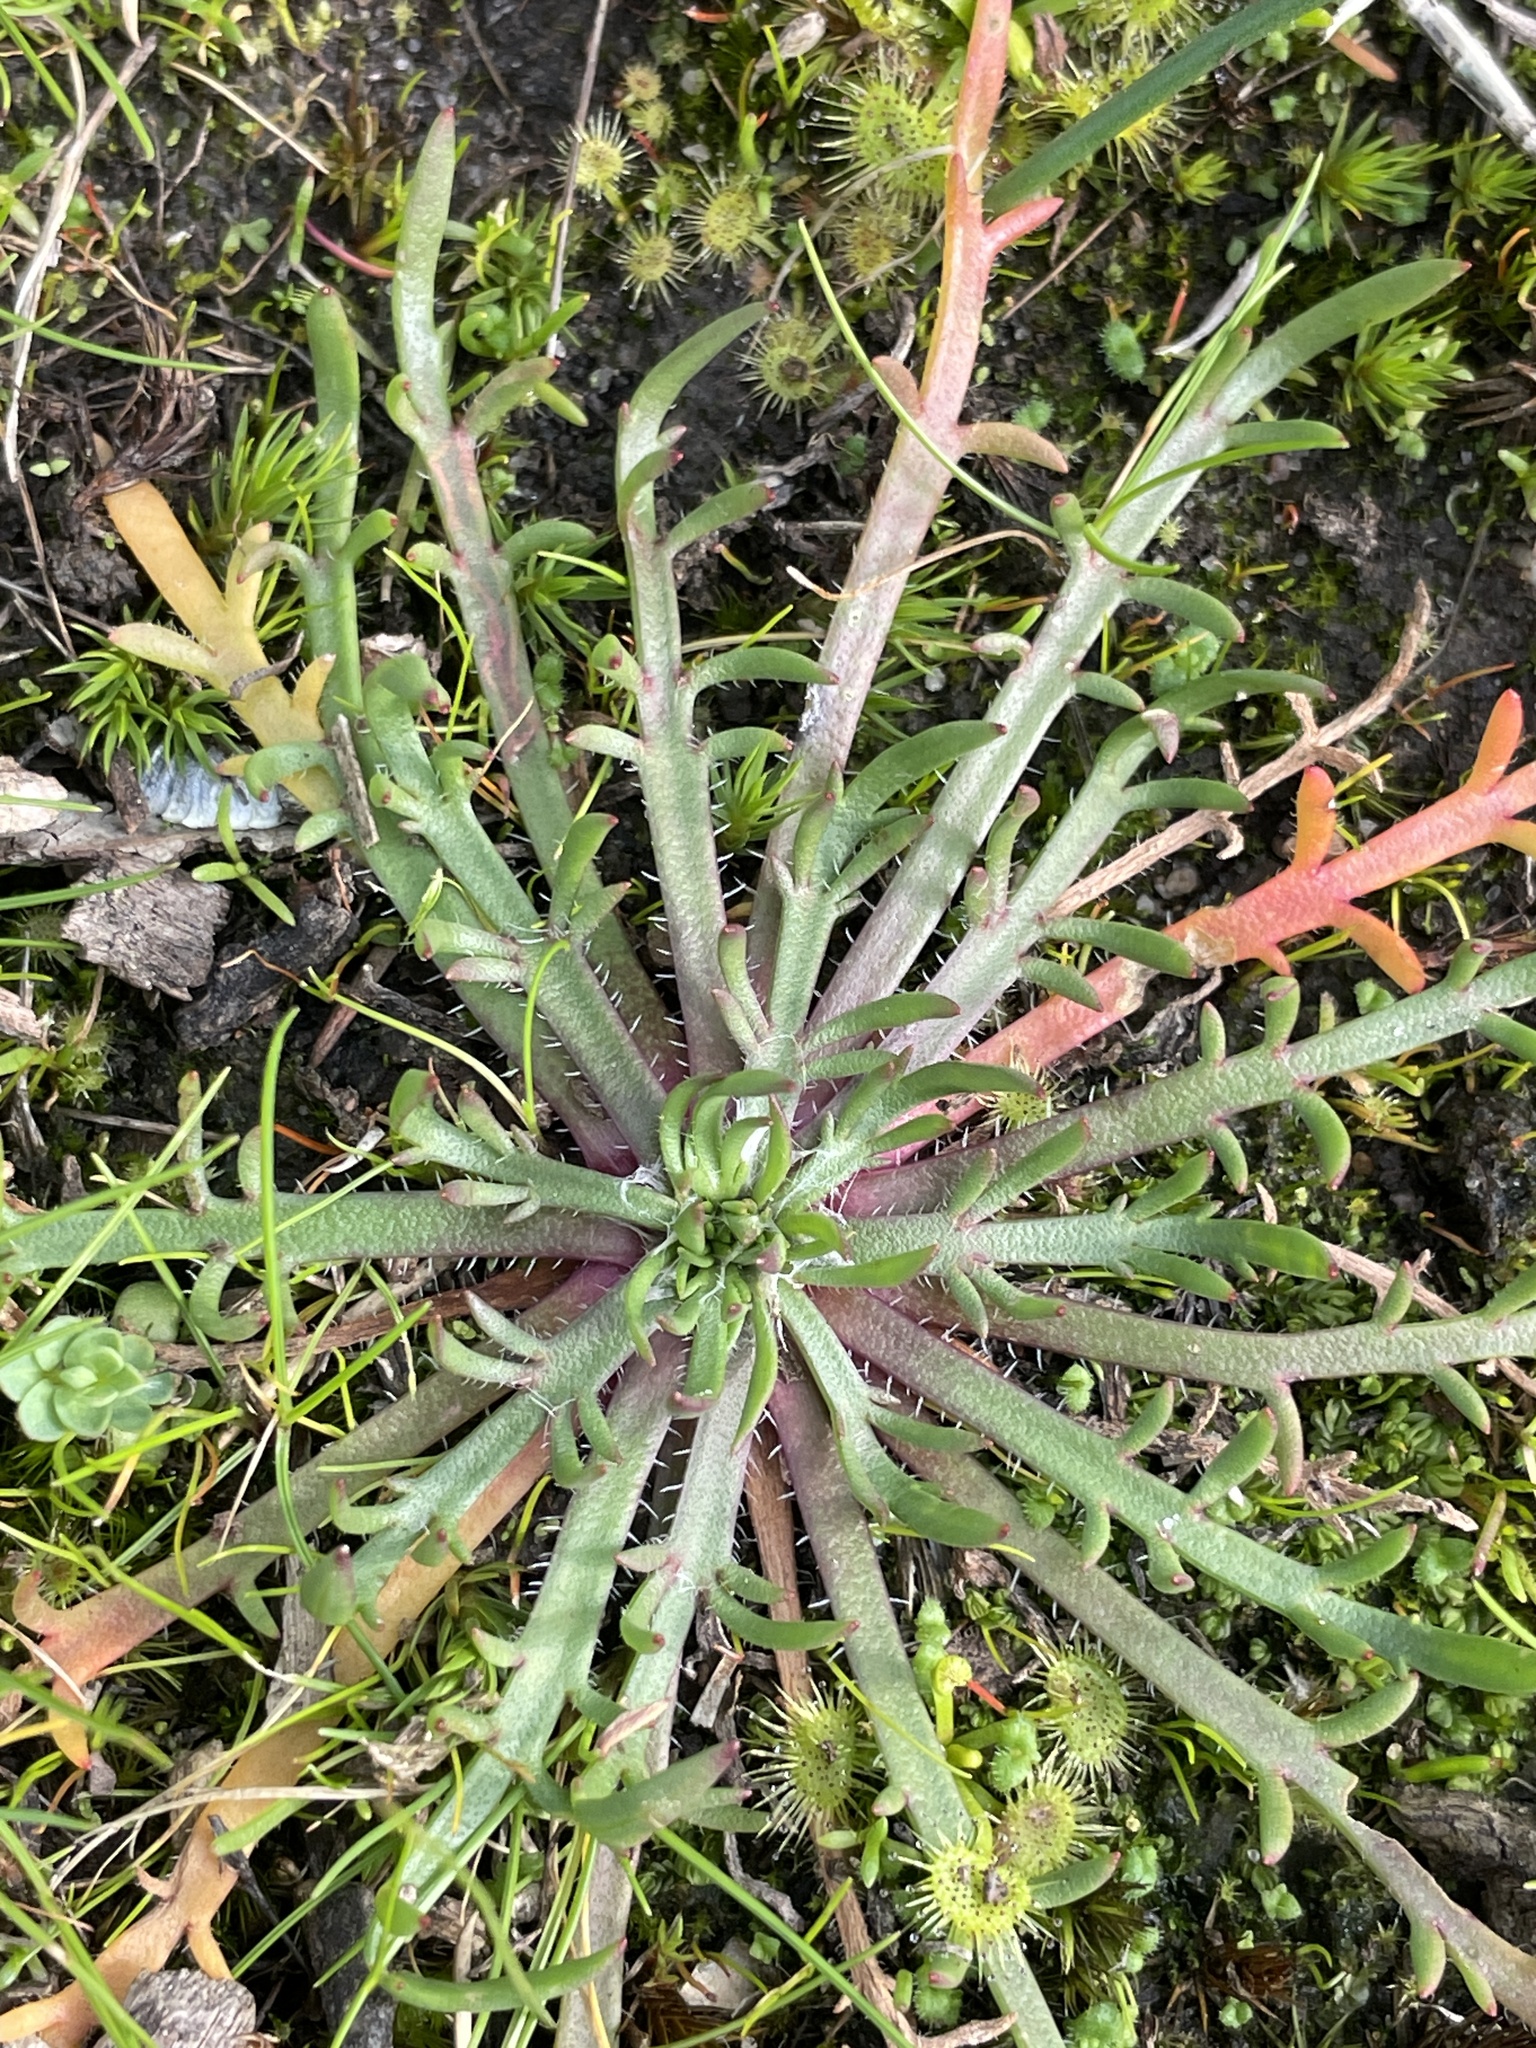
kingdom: Plantae
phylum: Tracheophyta
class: Magnoliopsida
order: Lamiales
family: Plantaginaceae
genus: Plantago
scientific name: Plantago coronopus
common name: Buck's-horn plantain
